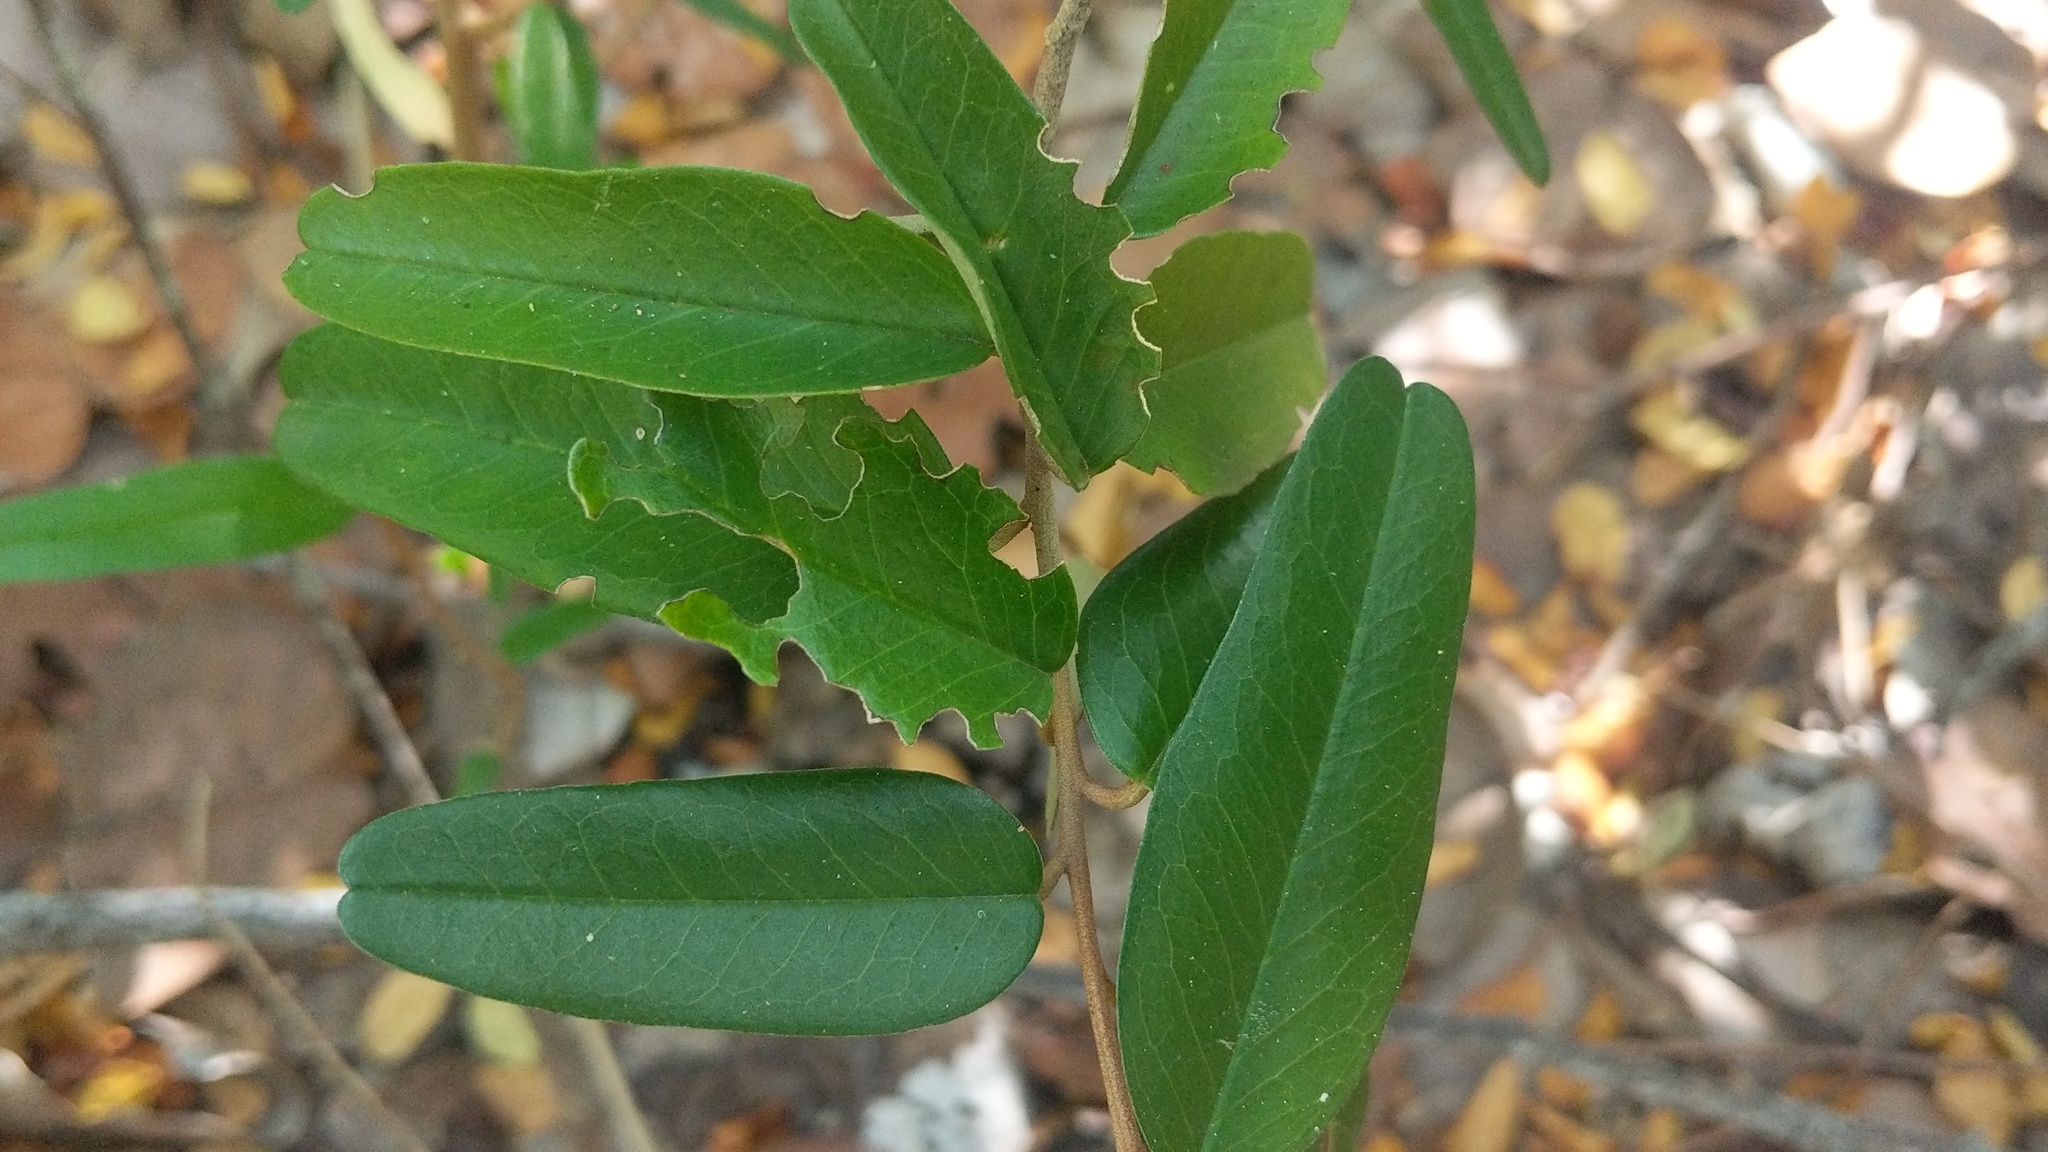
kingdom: Plantae
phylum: Tracheophyta
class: Magnoliopsida
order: Brassicales
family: Capparaceae
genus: Quadrella
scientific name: Quadrella cynophallophora
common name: Black willow
